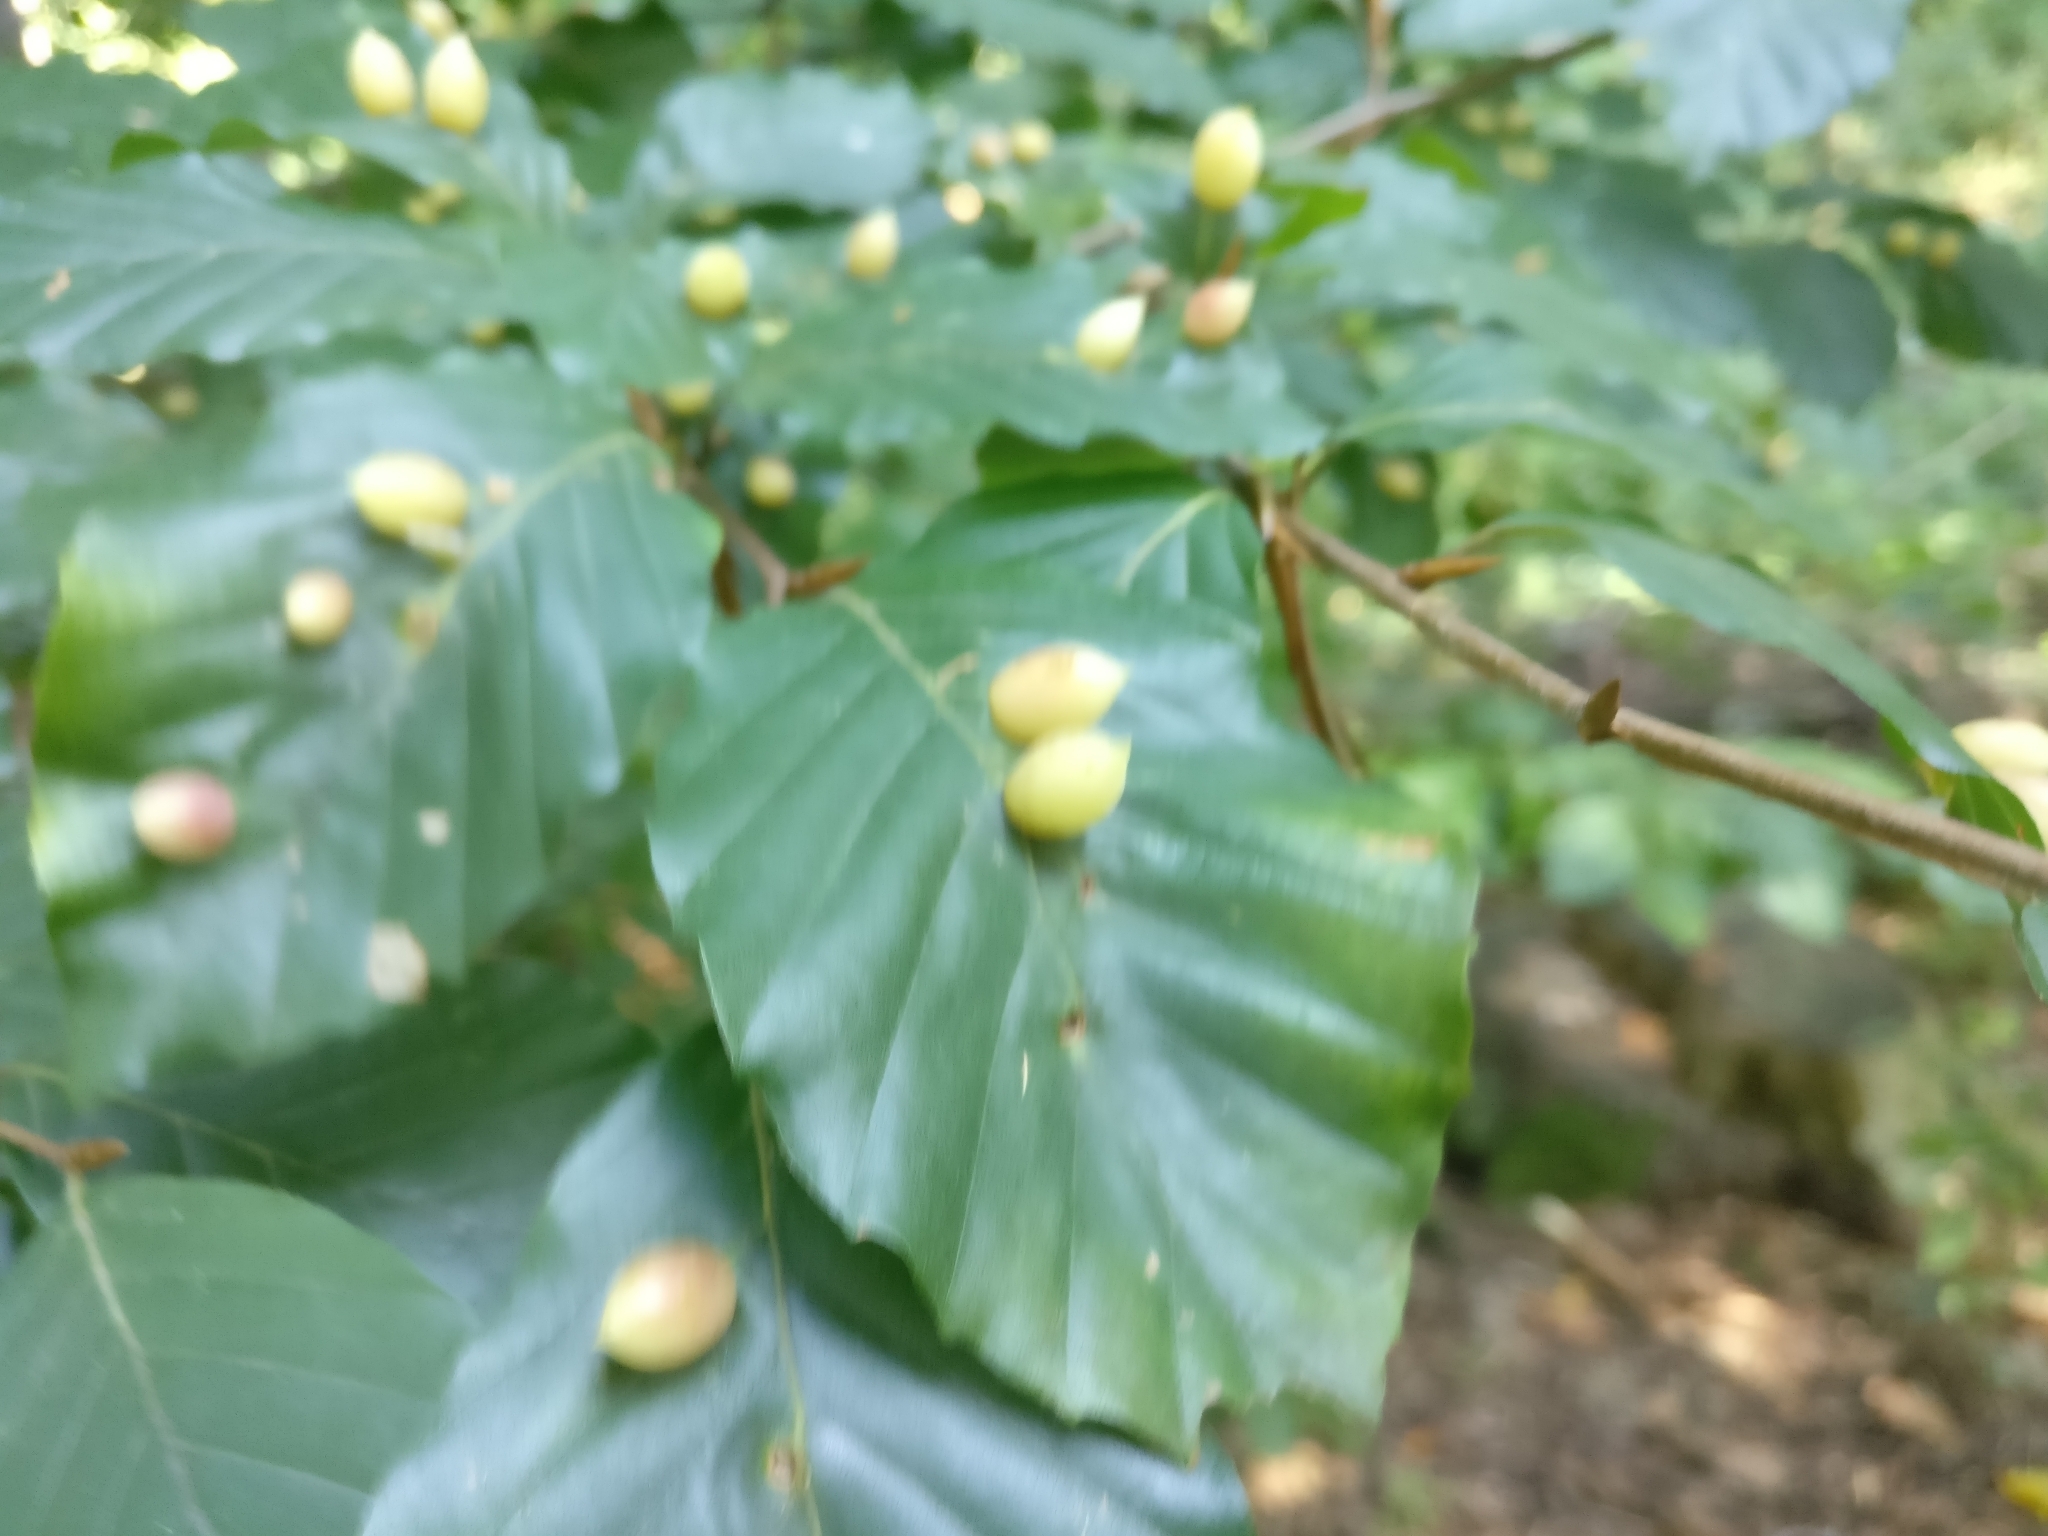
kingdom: Animalia
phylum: Arthropoda
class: Insecta
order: Diptera
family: Cecidomyiidae
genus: Mikiola
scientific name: Mikiola fagi
